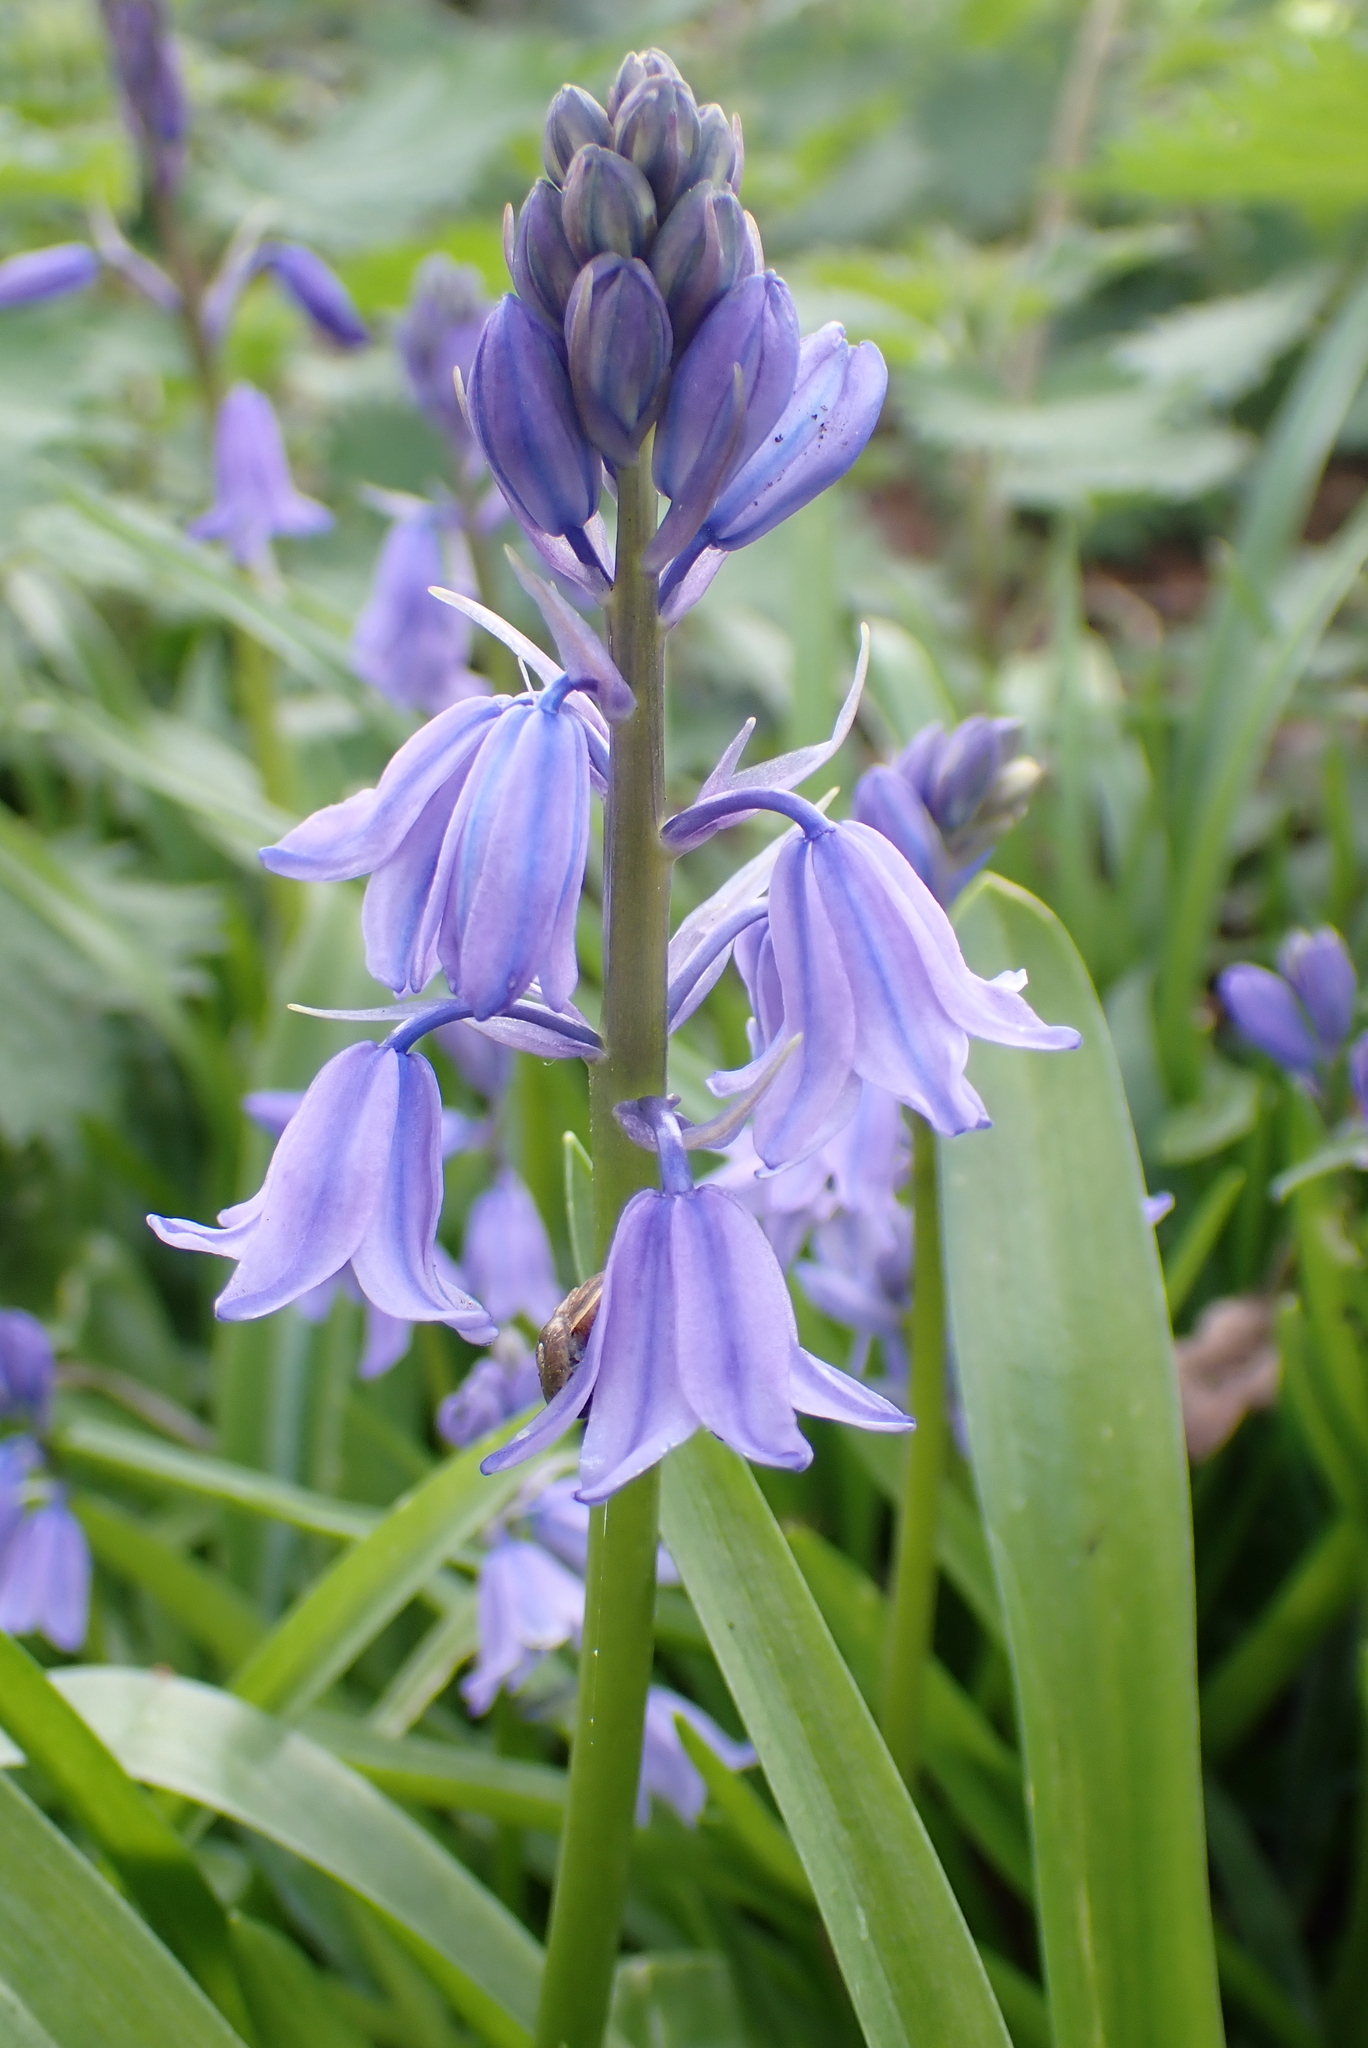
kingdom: Plantae
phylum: Tracheophyta
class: Liliopsida
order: Asparagales
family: Asparagaceae
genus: Hyacinthoides
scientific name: Hyacinthoides hispanica
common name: Spanish bluebell
